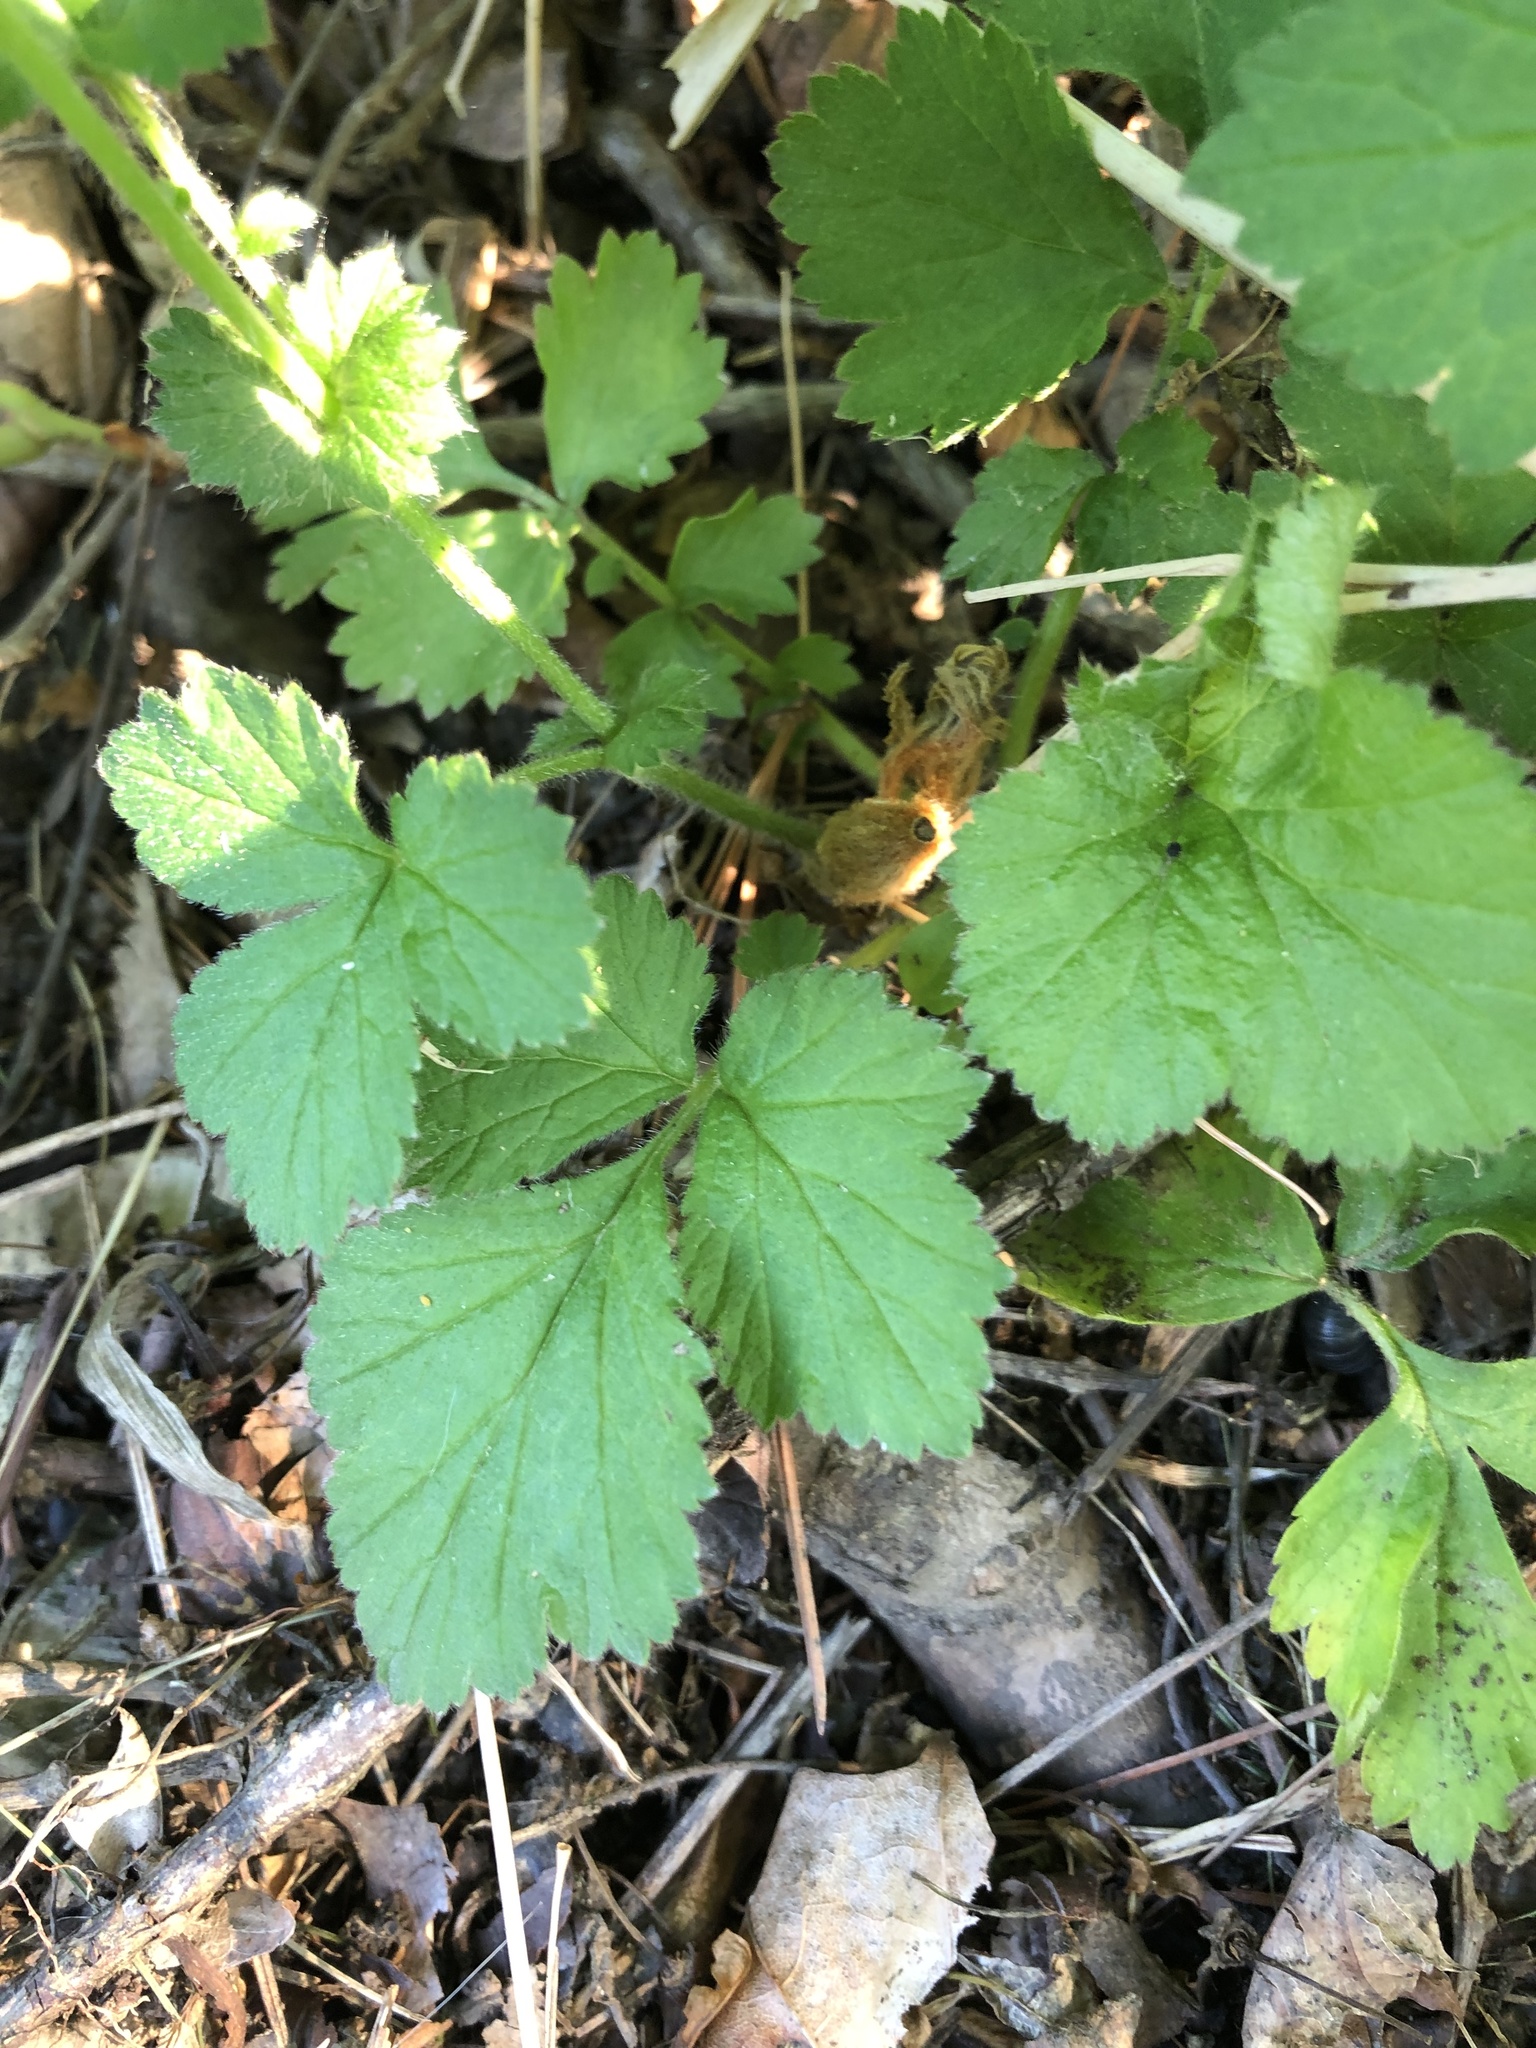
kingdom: Plantae
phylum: Tracheophyta
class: Magnoliopsida
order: Rosales
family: Rosaceae
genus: Geum
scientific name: Geum urbanum
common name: Wood avens
